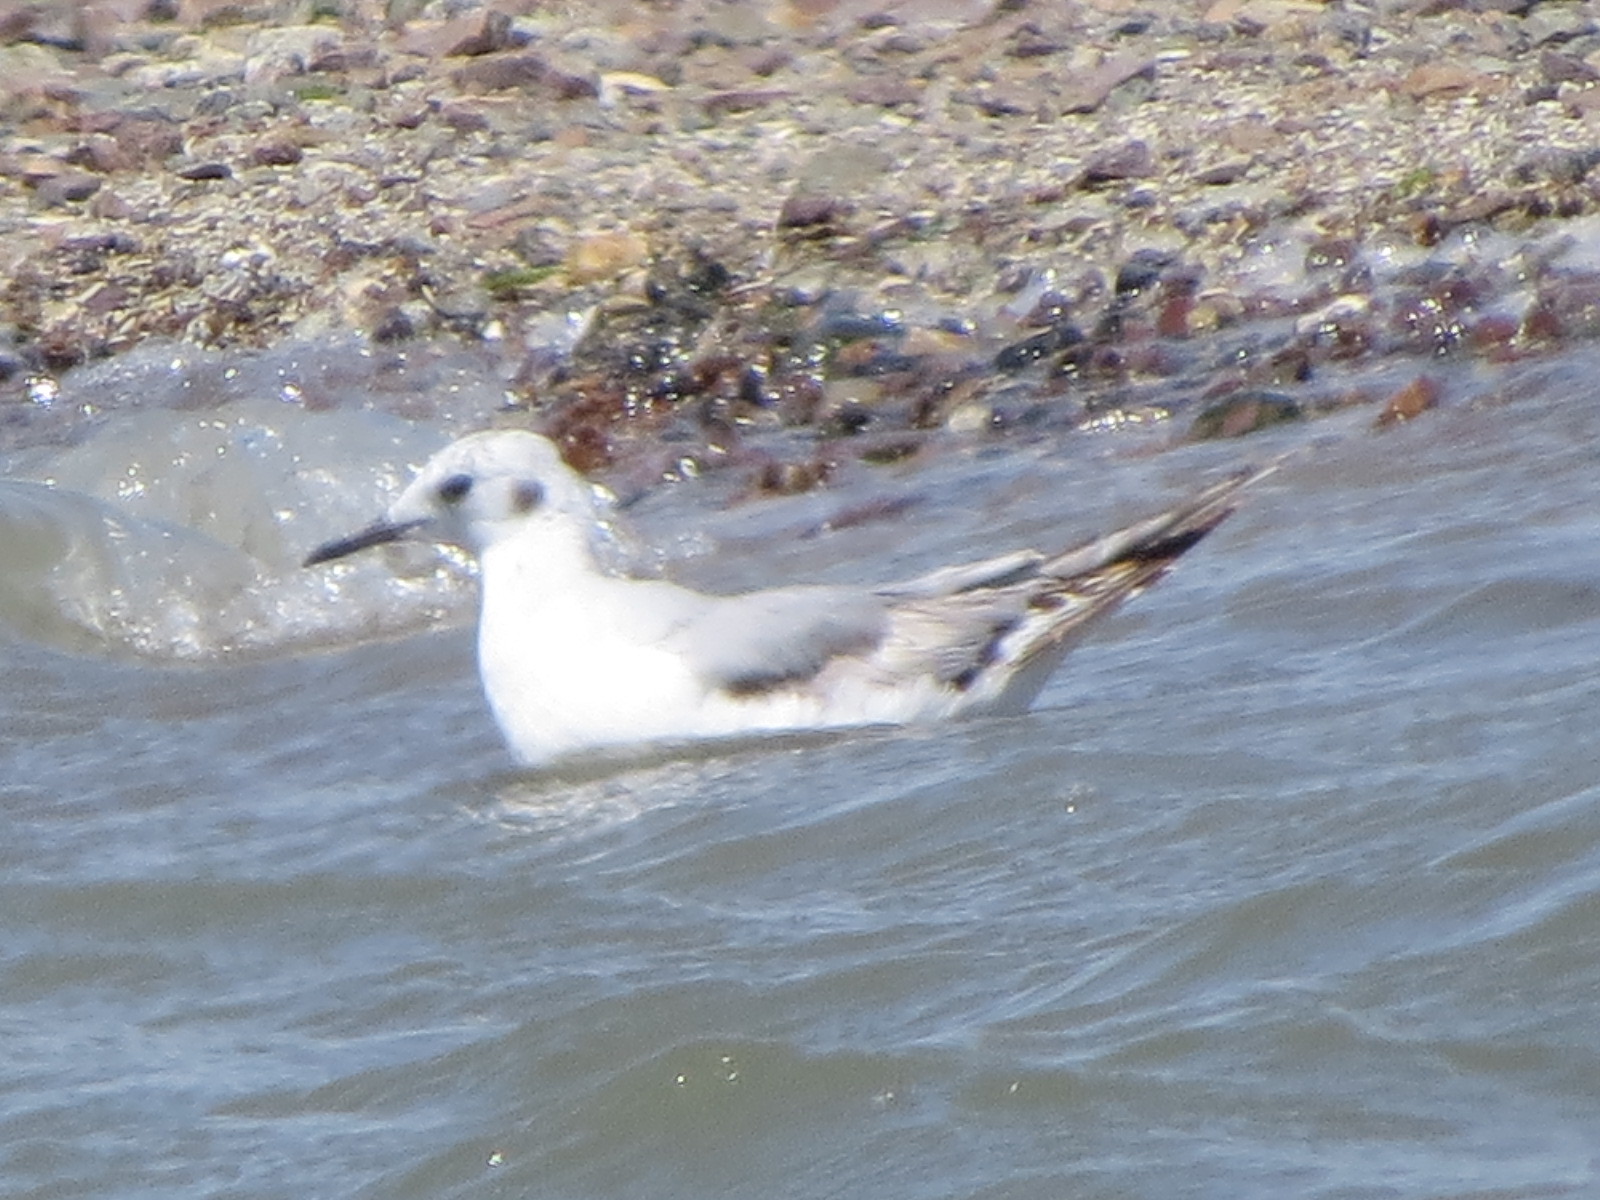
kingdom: Animalia
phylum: Chordata
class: Aves
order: Charadriiformes
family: Laridae
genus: Chroicocephalus
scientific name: Chroicocephalus philadelphia
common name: Bonaparte's gull
